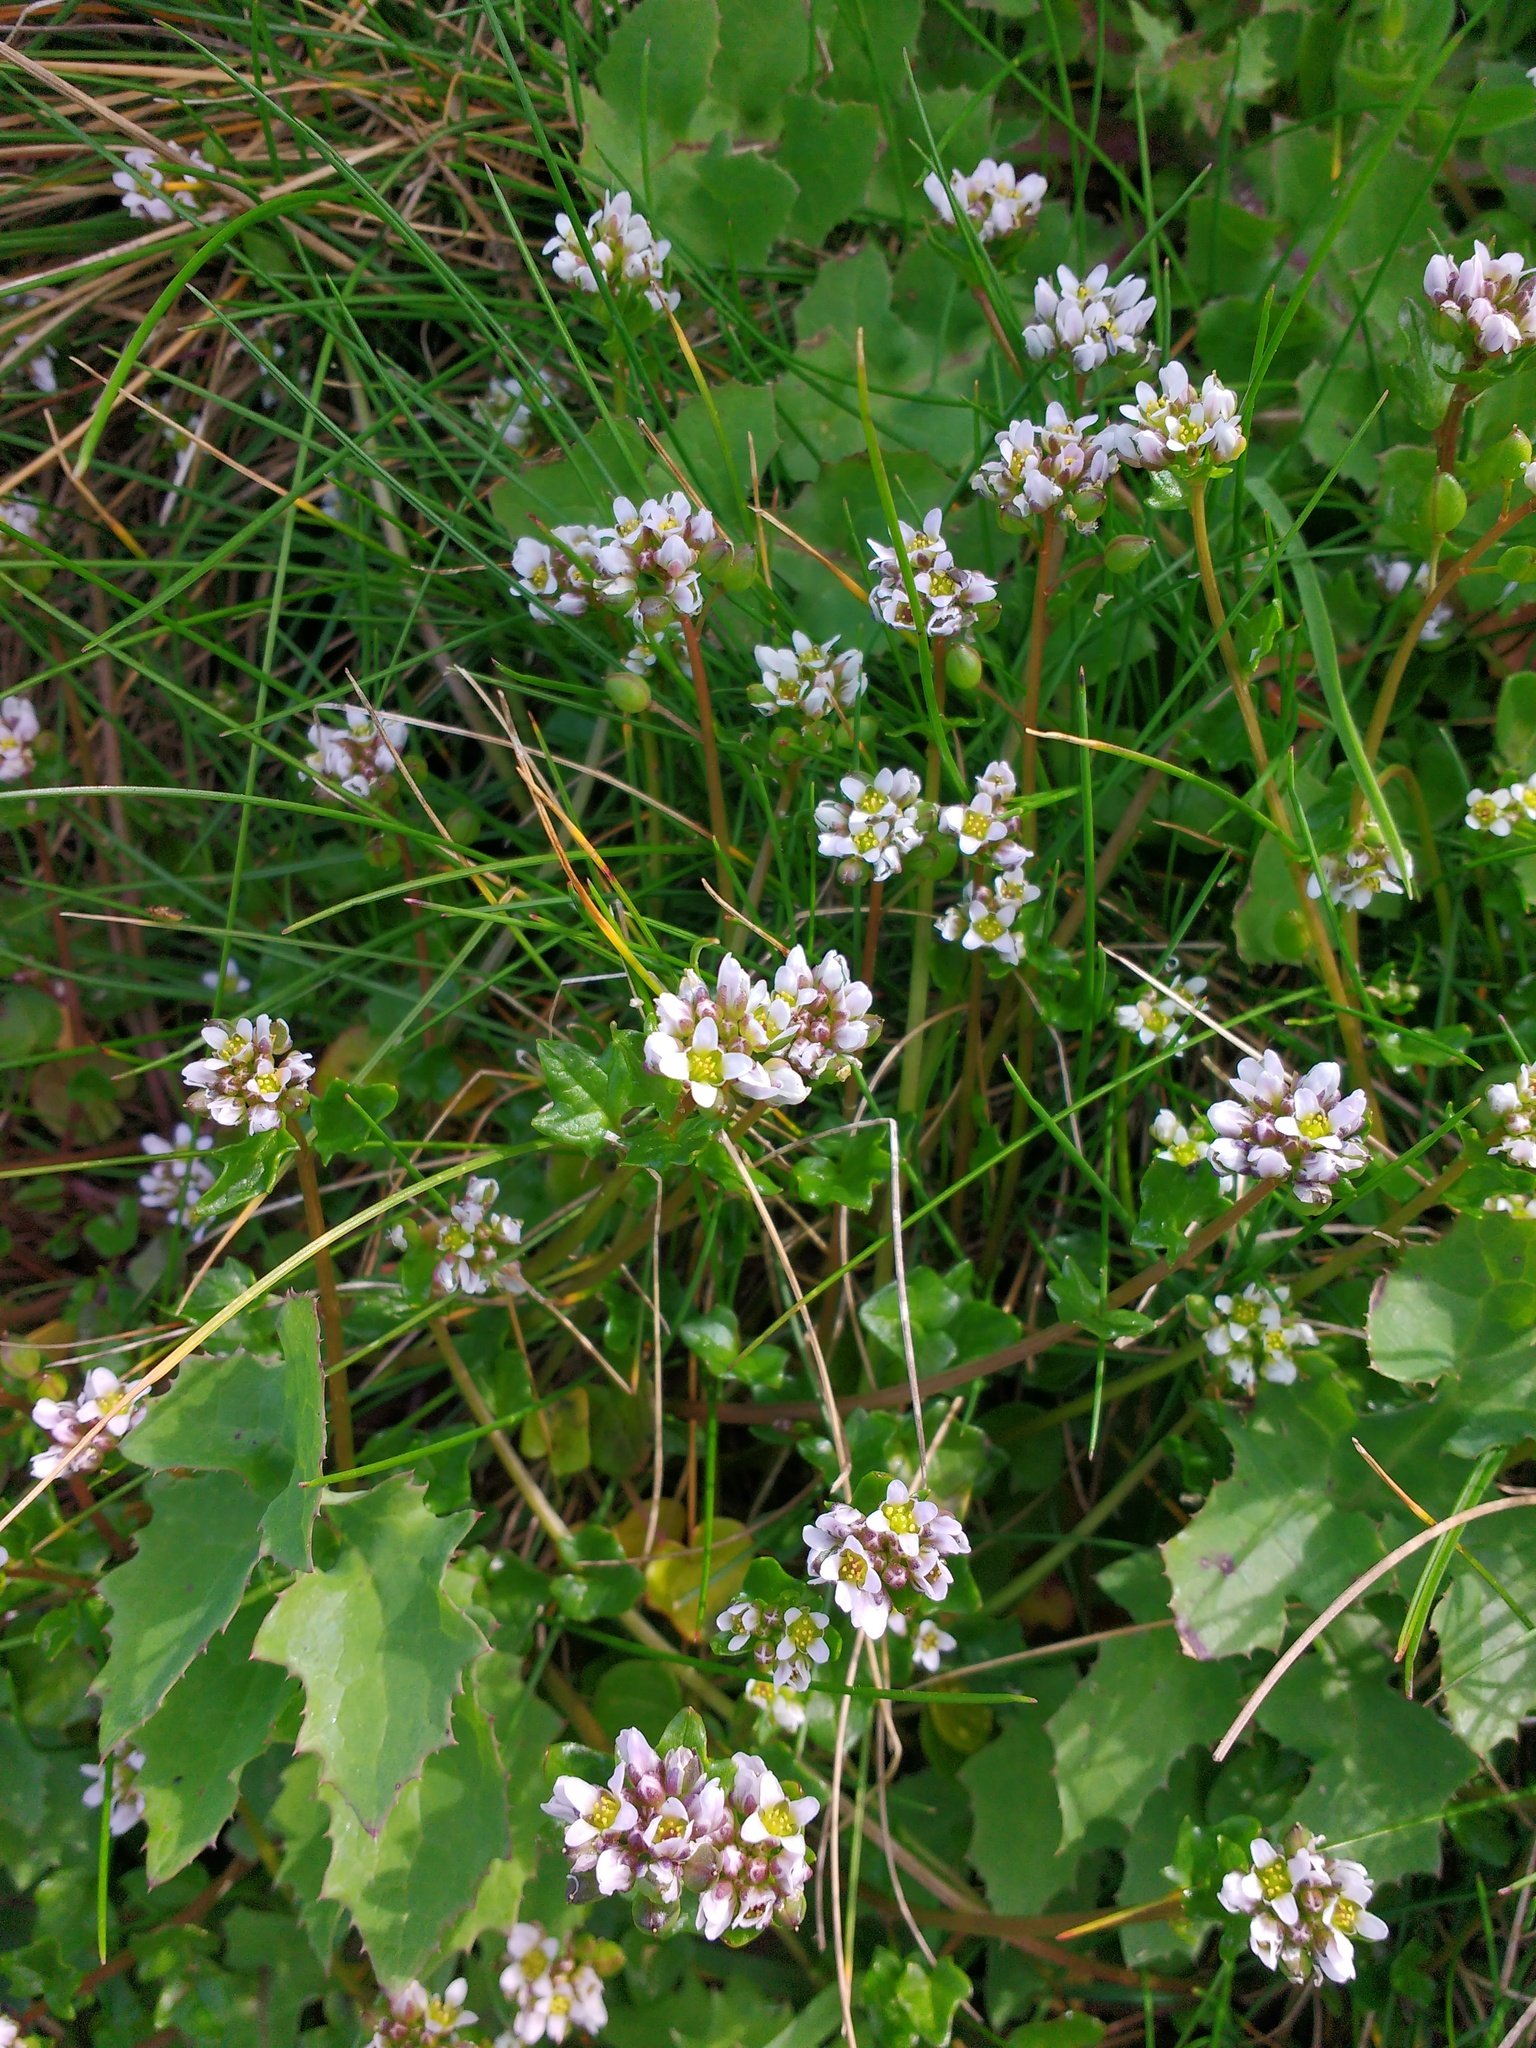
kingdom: Plantae
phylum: Tracheophyta
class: Magnoliopsida
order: Brassicales
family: Brassicaceae
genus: Cochlearia
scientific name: Cochlearia danica
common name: Early scurvygrass
